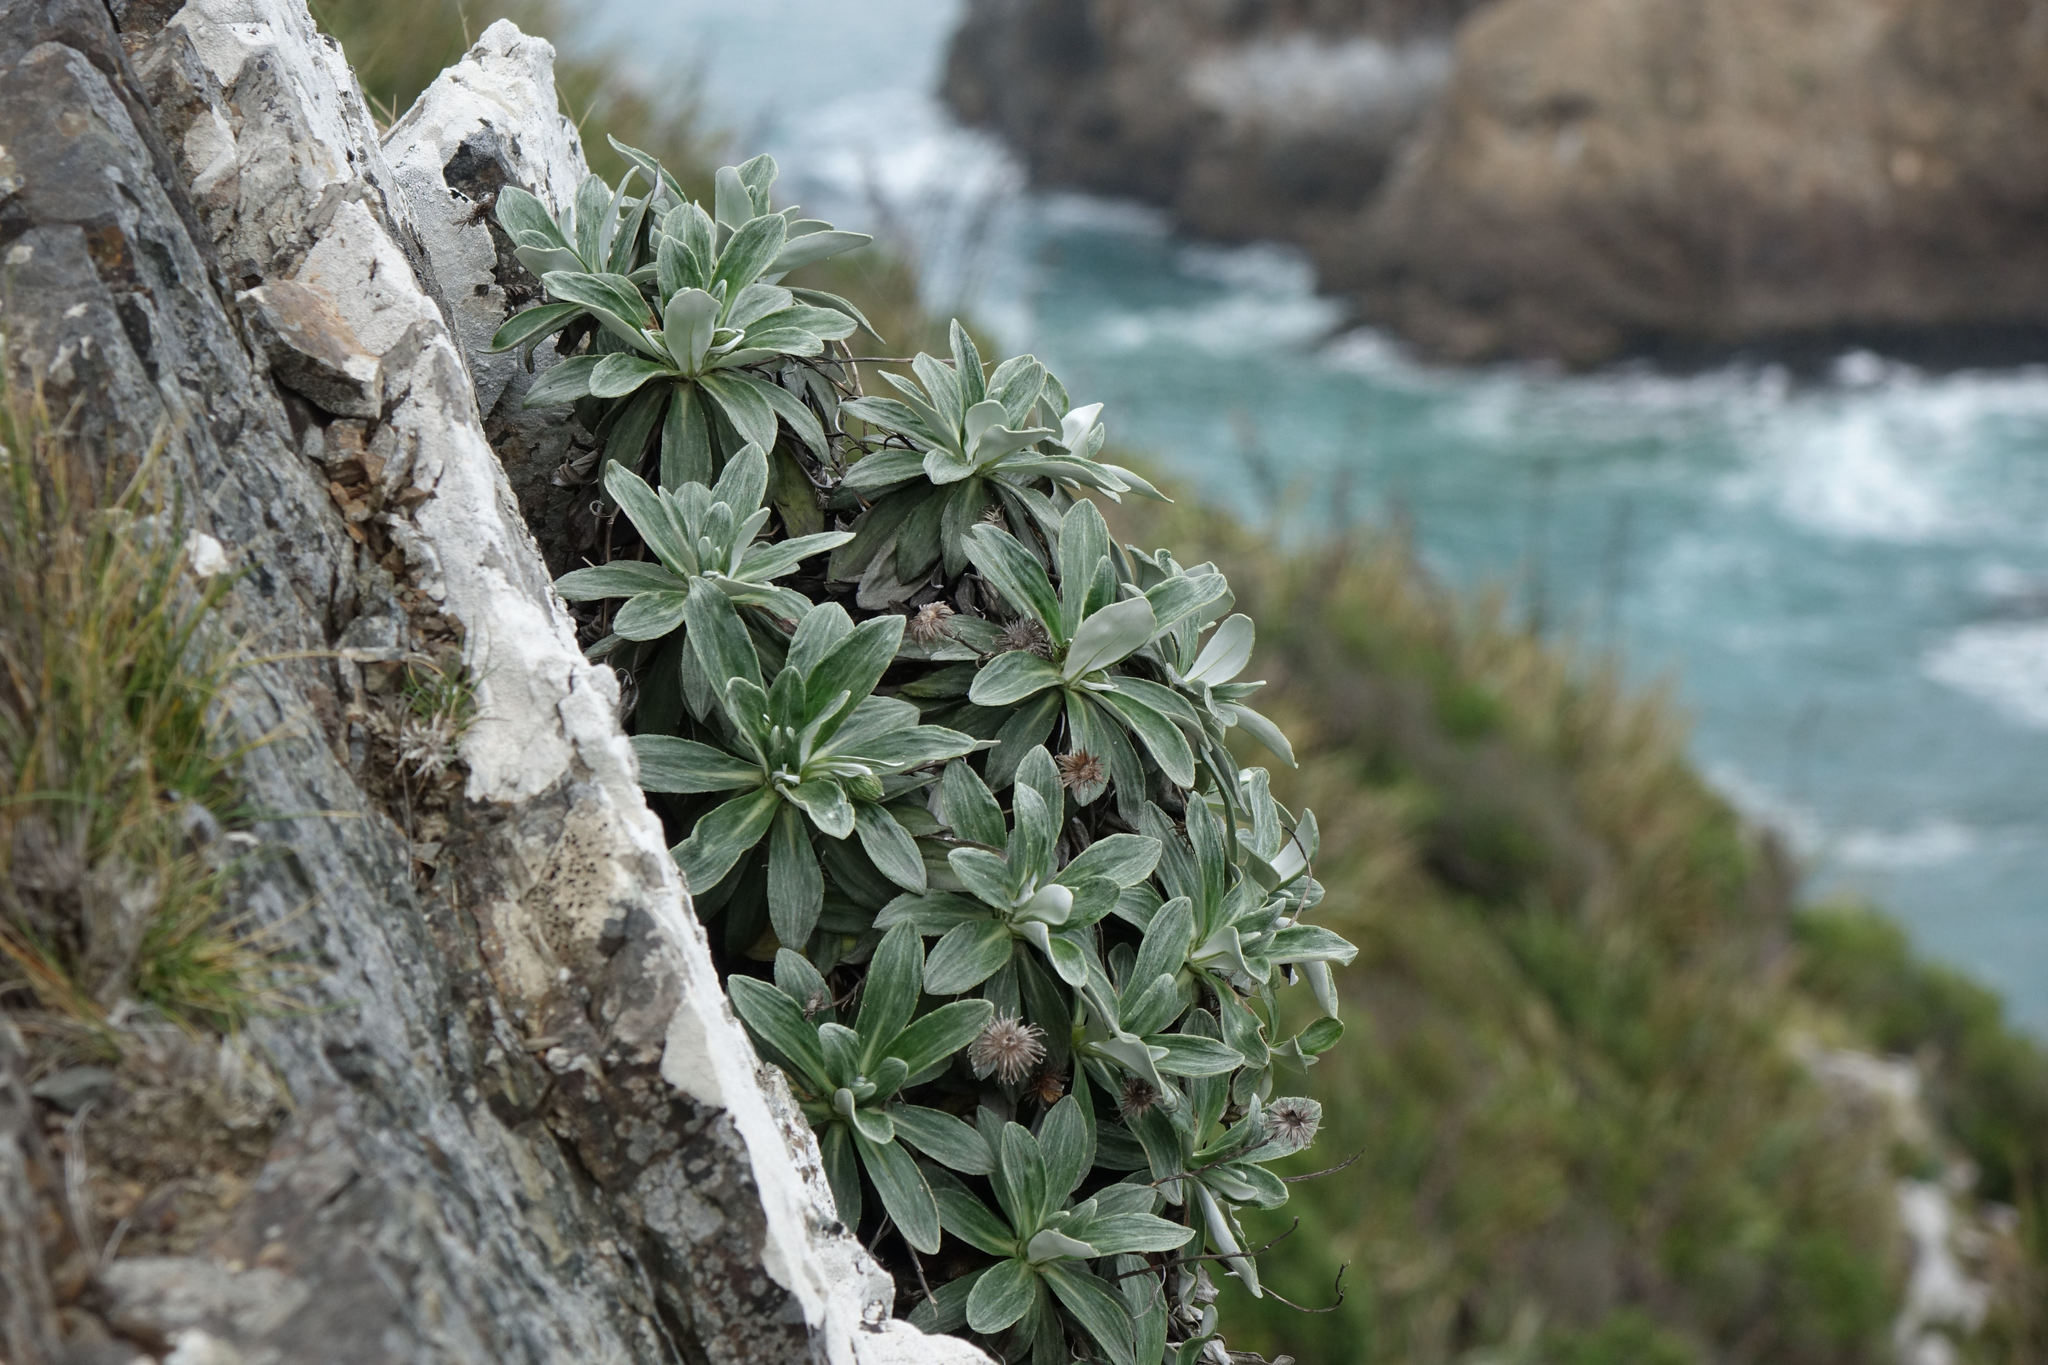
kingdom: Plantae
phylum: Tracheophyta
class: Magnoliopsida
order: Asterales
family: Asteraceae
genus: Celmisia
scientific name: Celmisia lindsayi
